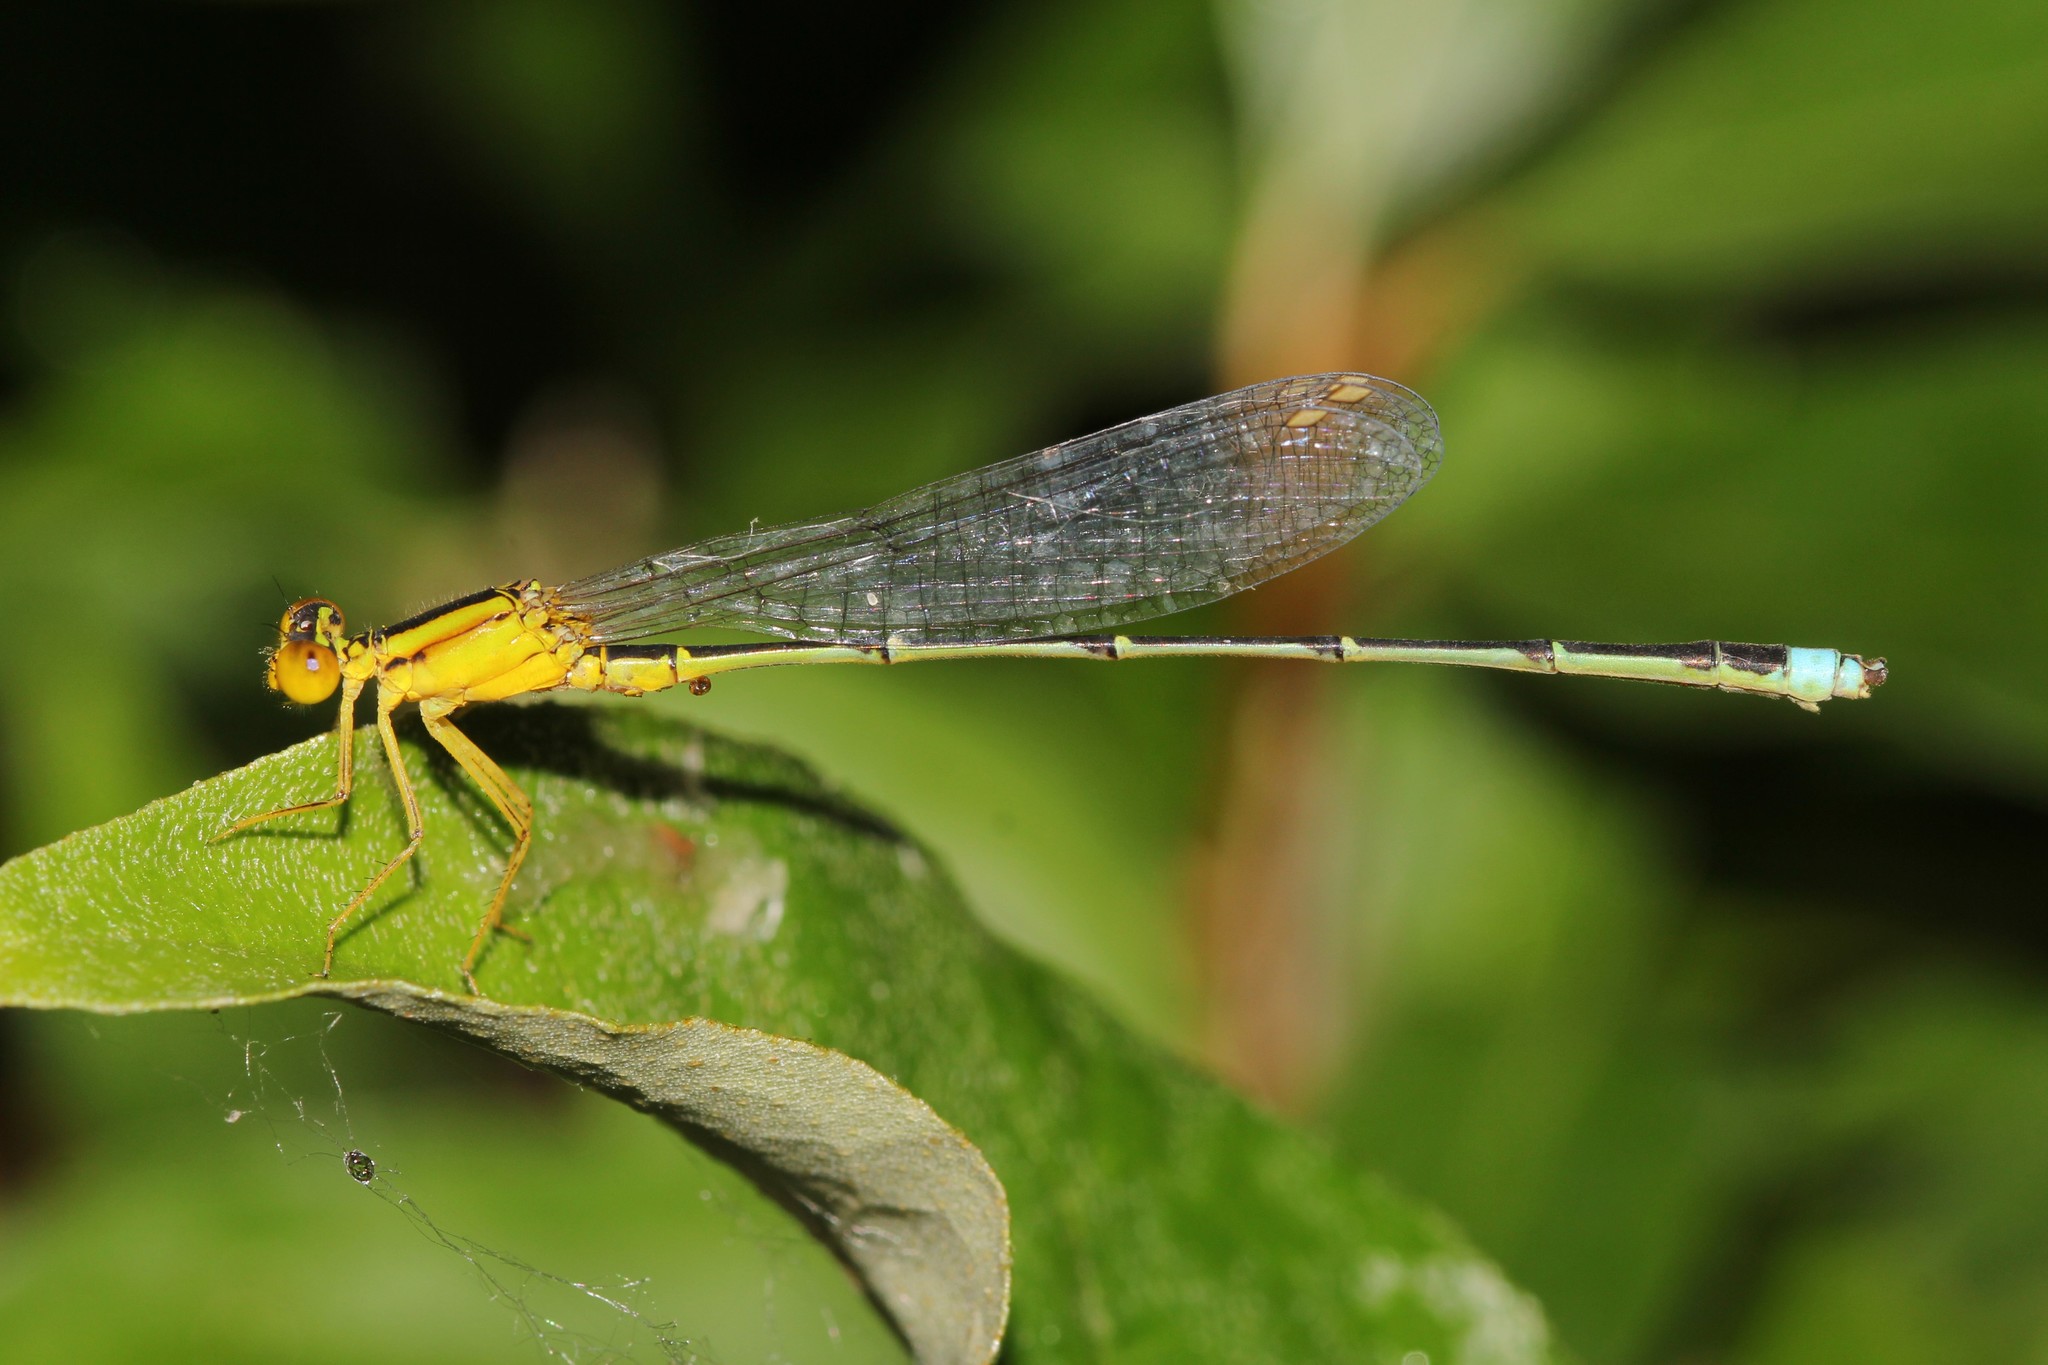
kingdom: Animalia
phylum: Arthropoda
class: Insecta
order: Odonata
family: Coenagrionidae
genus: Enallagma
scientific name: Enallagma vesperum
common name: Vesper bluet
